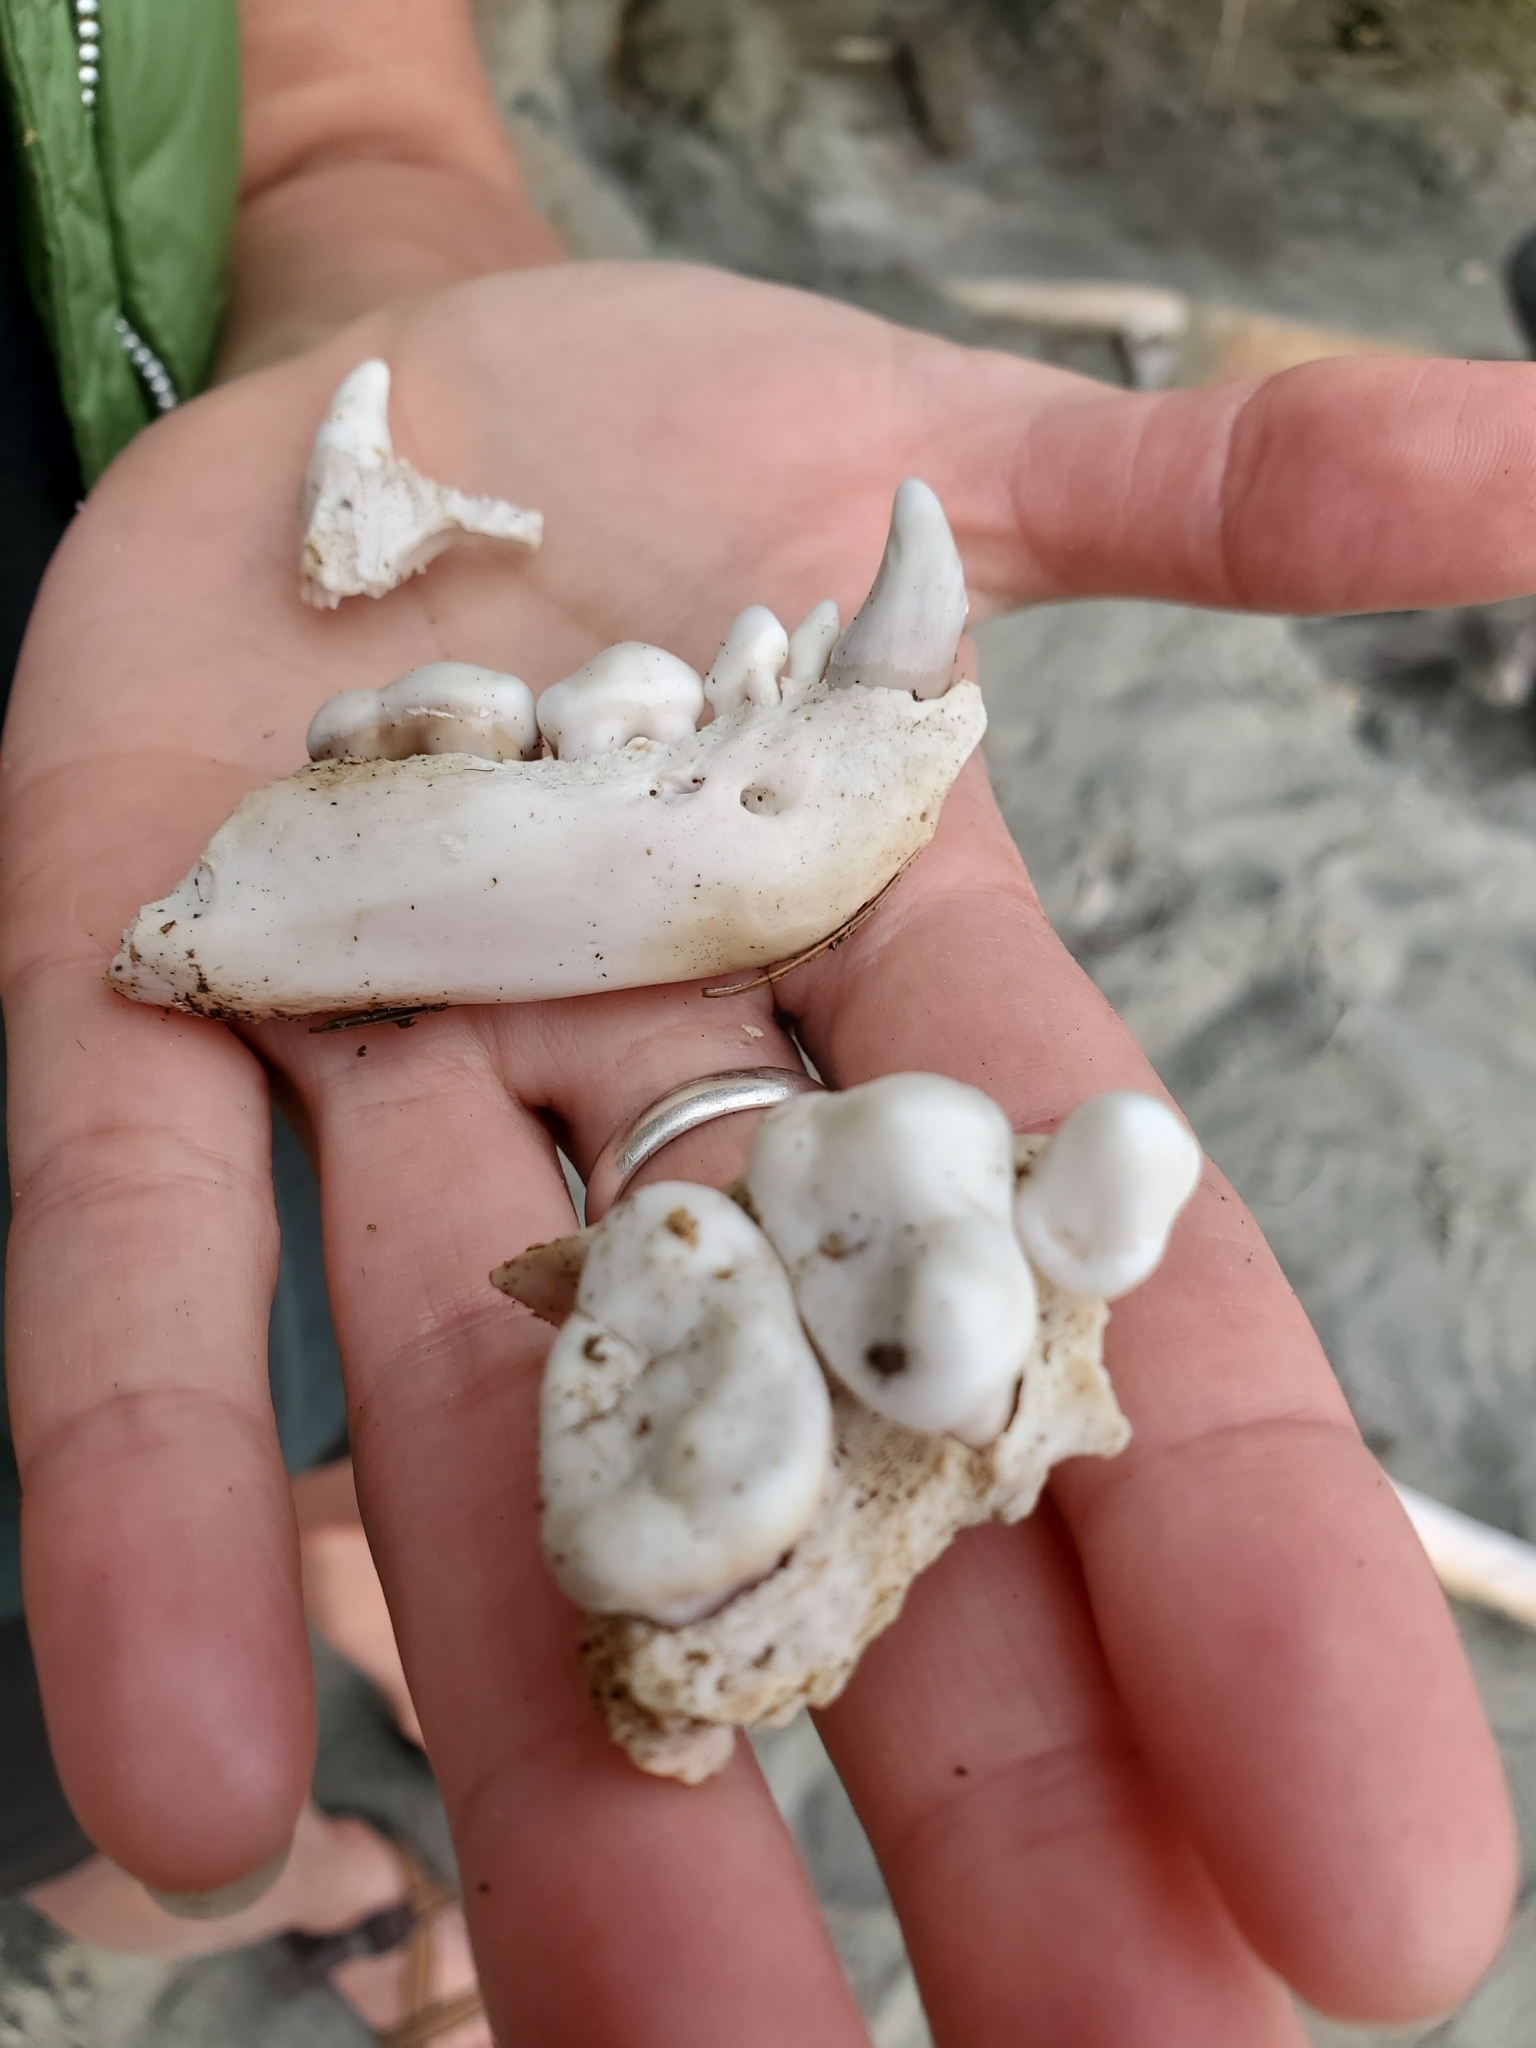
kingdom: Animalia
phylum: Chordata
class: Mammalia
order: Carnivora
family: Mustelidae
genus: Enhydra
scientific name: Enhydra lutris
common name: Sea otter
